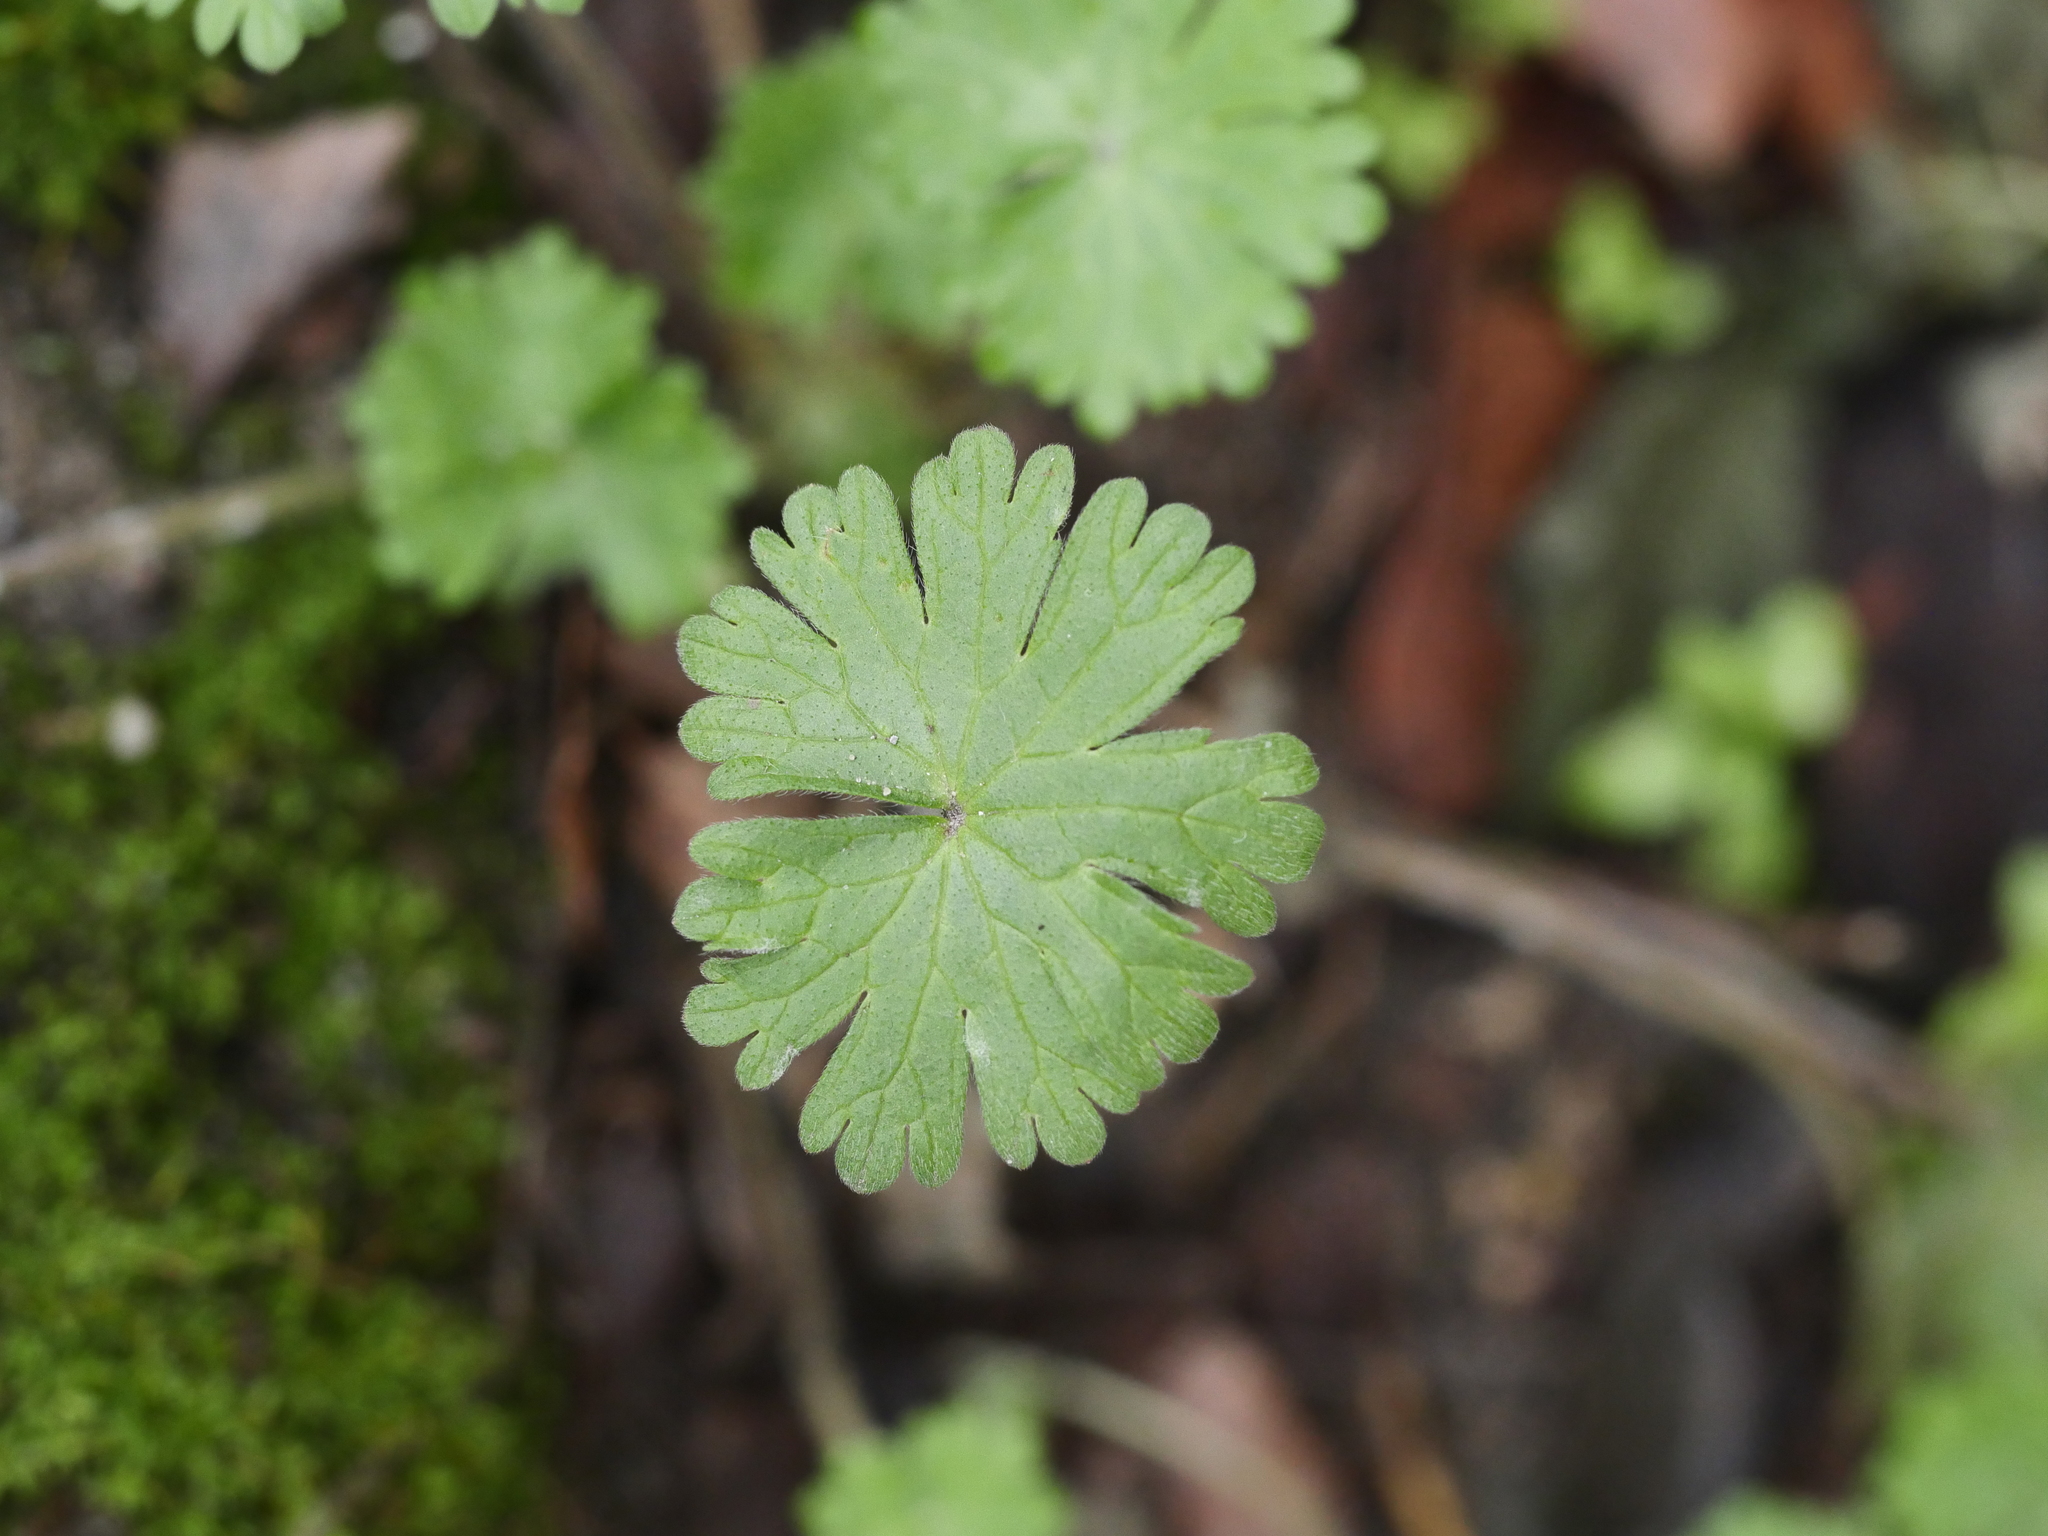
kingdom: Plantae
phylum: Tracheophyta
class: Magnoliopsida
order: Geraniales
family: Geraniaceae
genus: Geranium
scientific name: Geranium molle
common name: Dove's-foot crane's-bill
